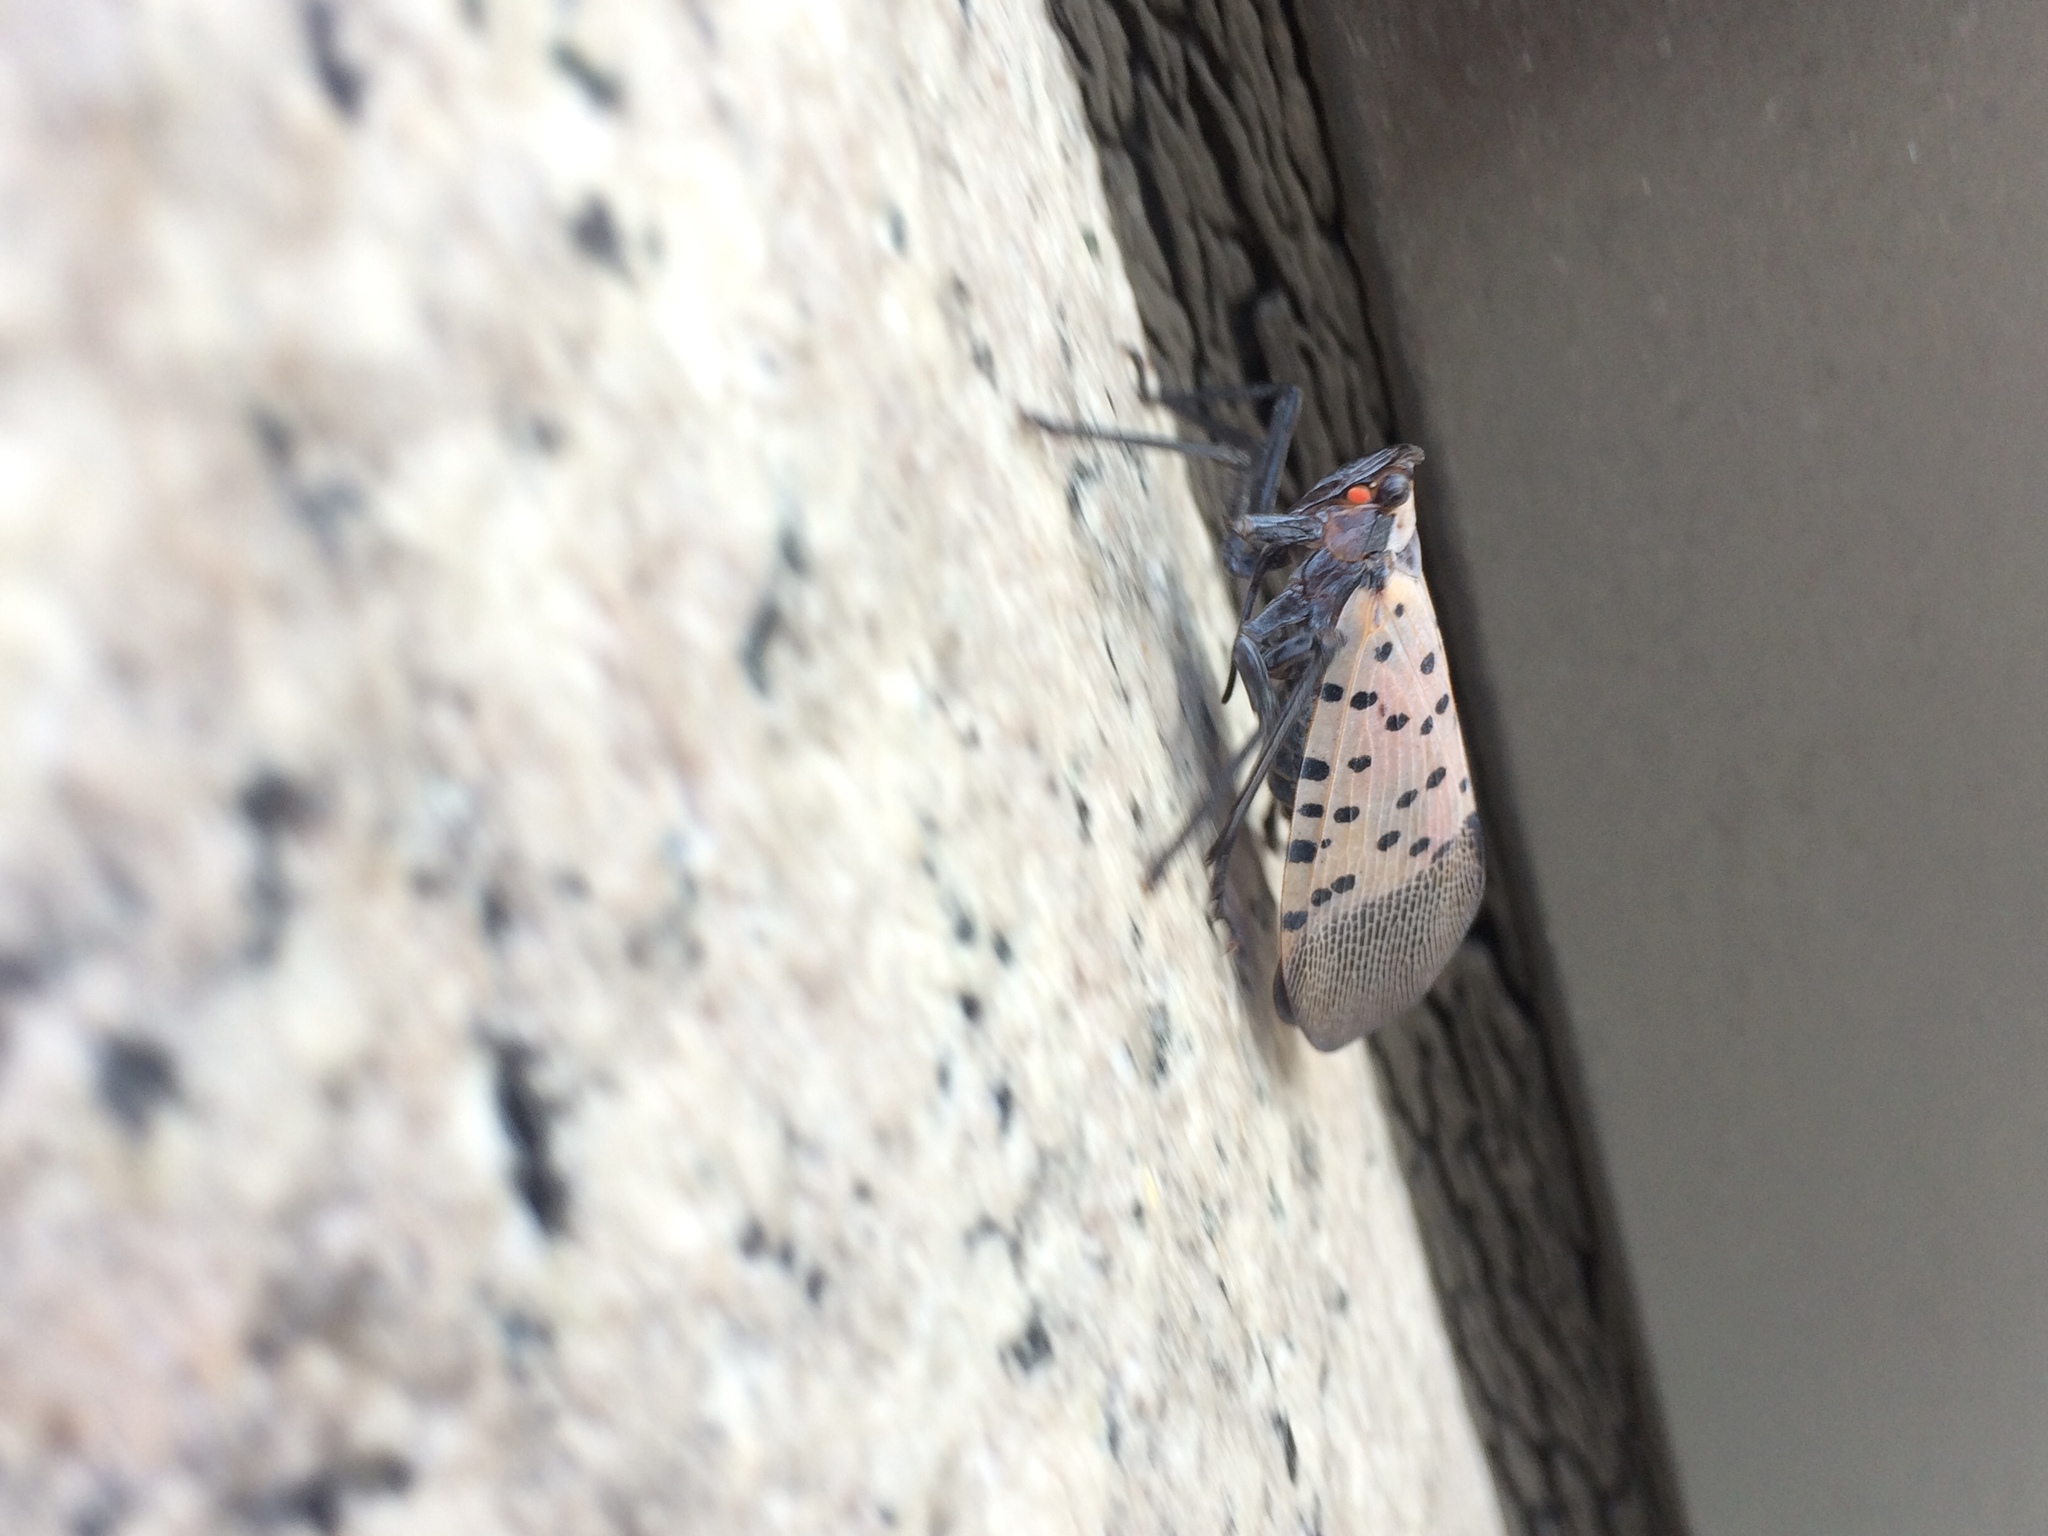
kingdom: Animalia
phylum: Arthropoda
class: Insecta
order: Hemiptera
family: Fulgoridae
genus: Lycorma
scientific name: Lycorma delicatula
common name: Spotted lanternfly
